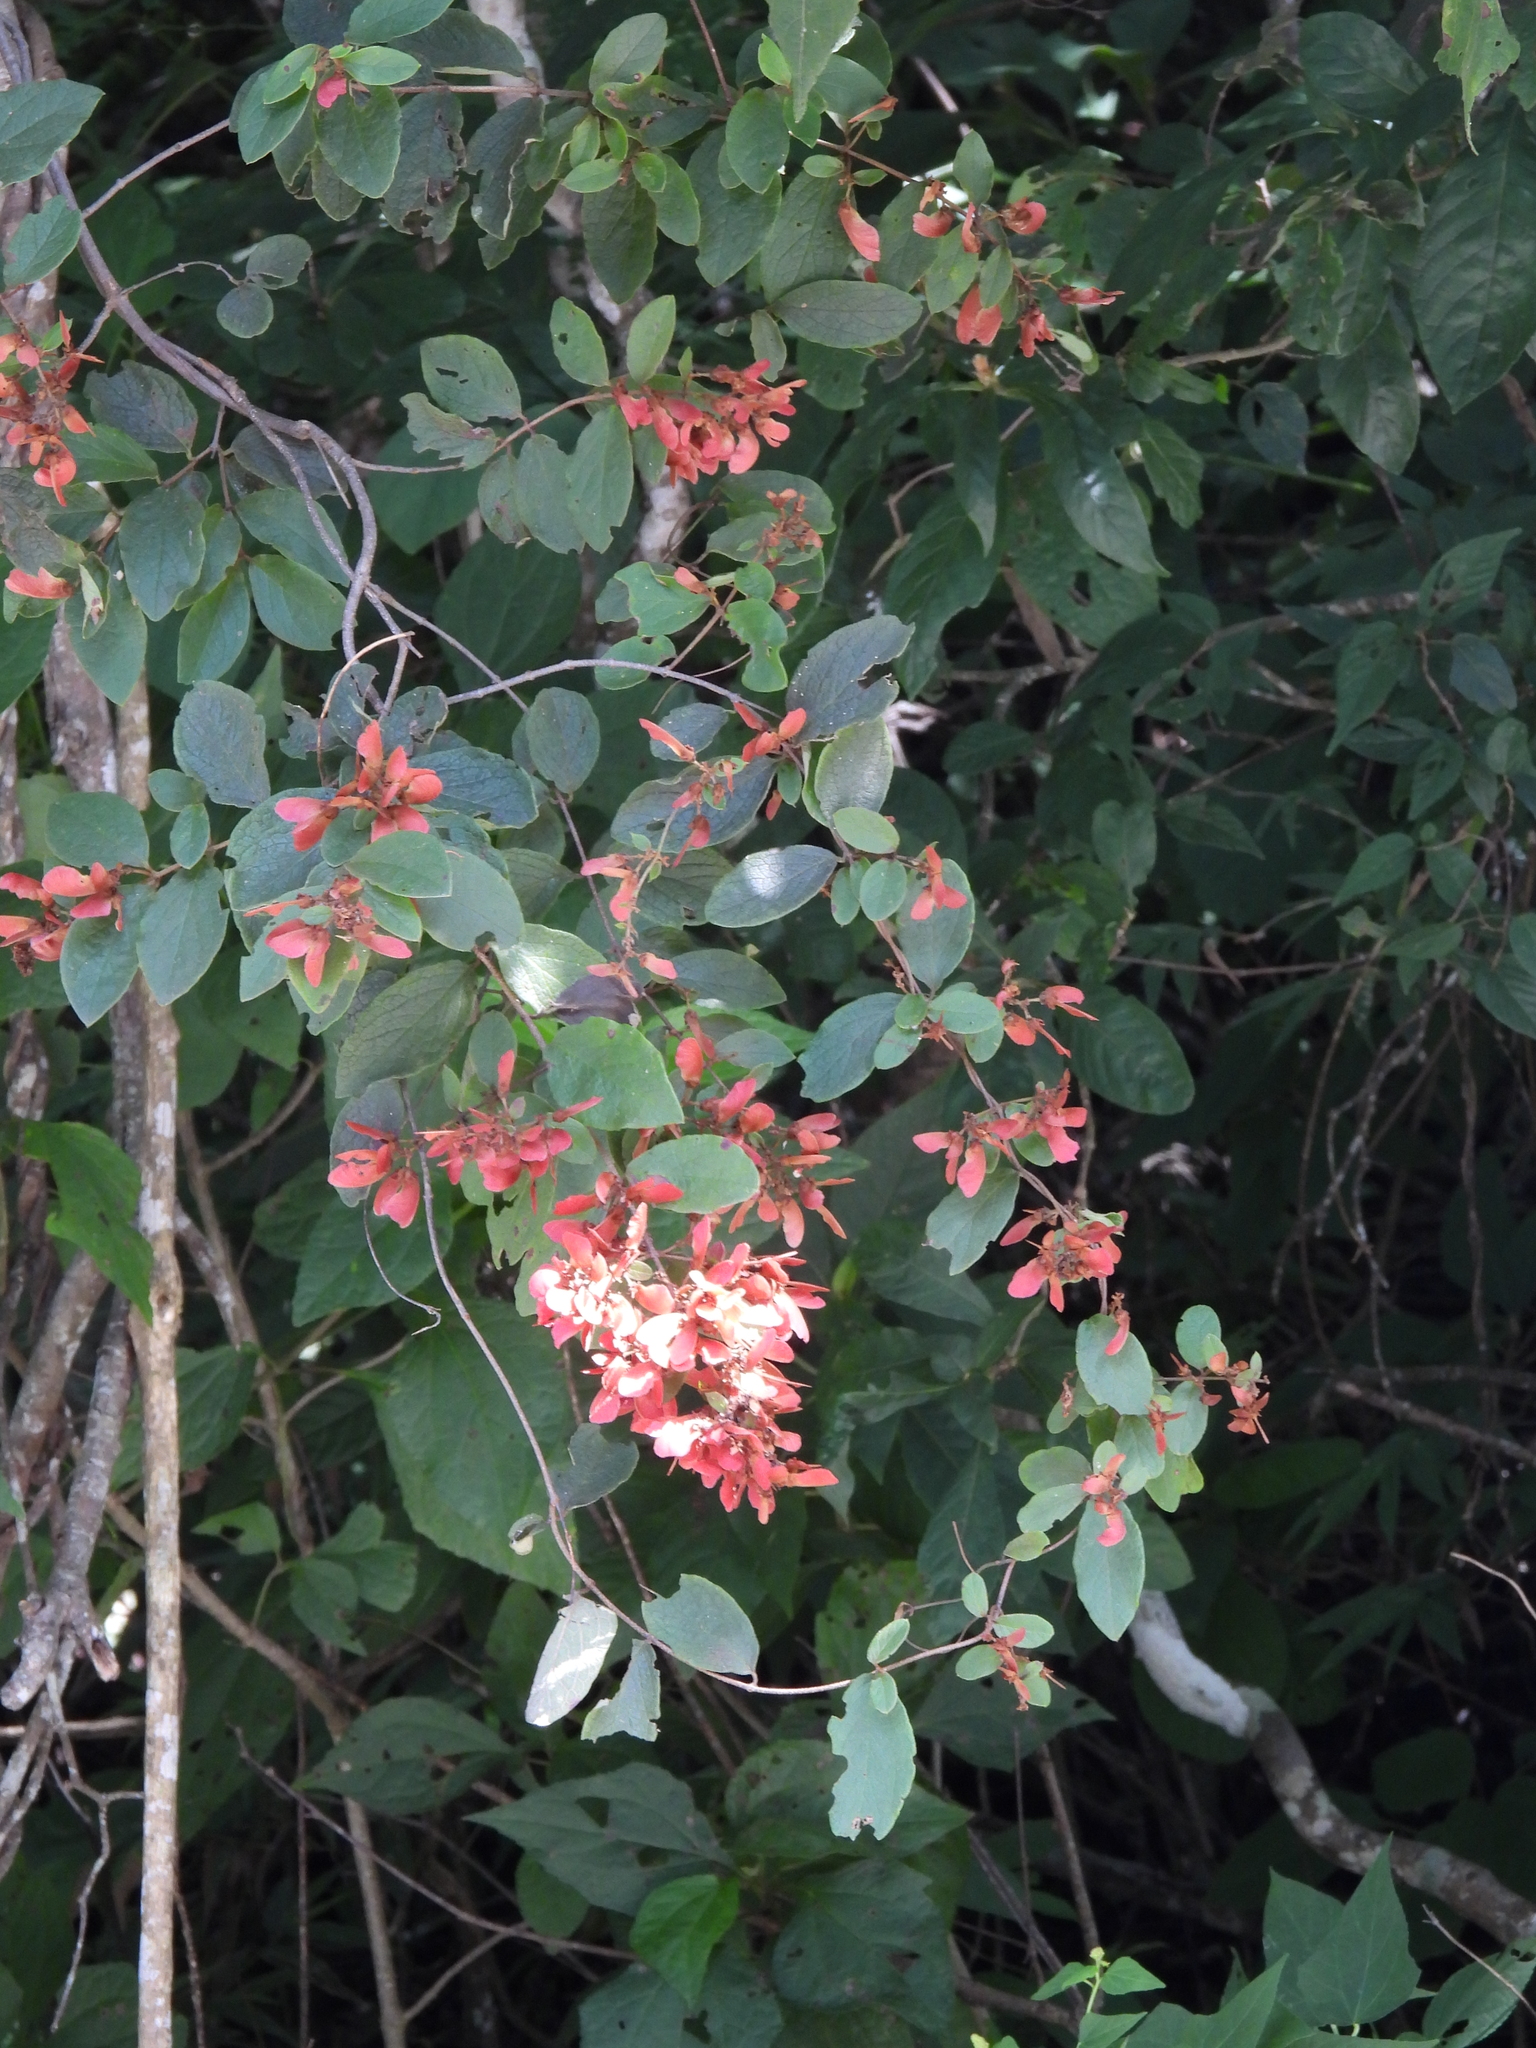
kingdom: Plantae
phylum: Tracheophyta
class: Magnoliopsida
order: Malpighiales
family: Malpighiaceae
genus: Heteropterys
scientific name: Heteropterys brachiata
